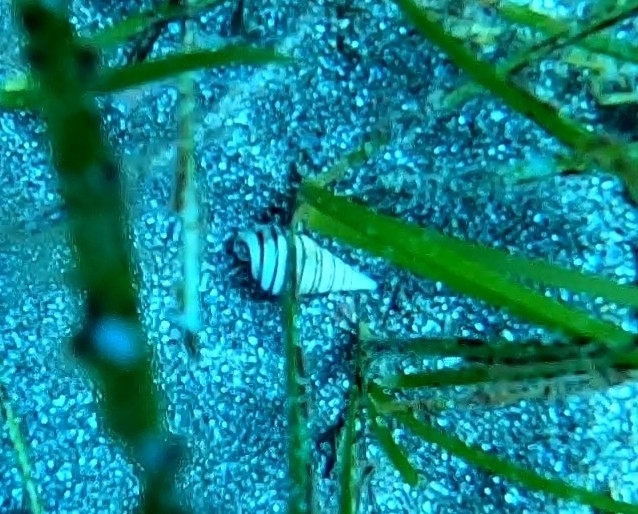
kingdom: Animalia
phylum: Mollusca
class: Gastropoda
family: Pyramidellidae
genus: Pyramidella
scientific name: Pyramidella dolabrata
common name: Giant atlantic pyram
